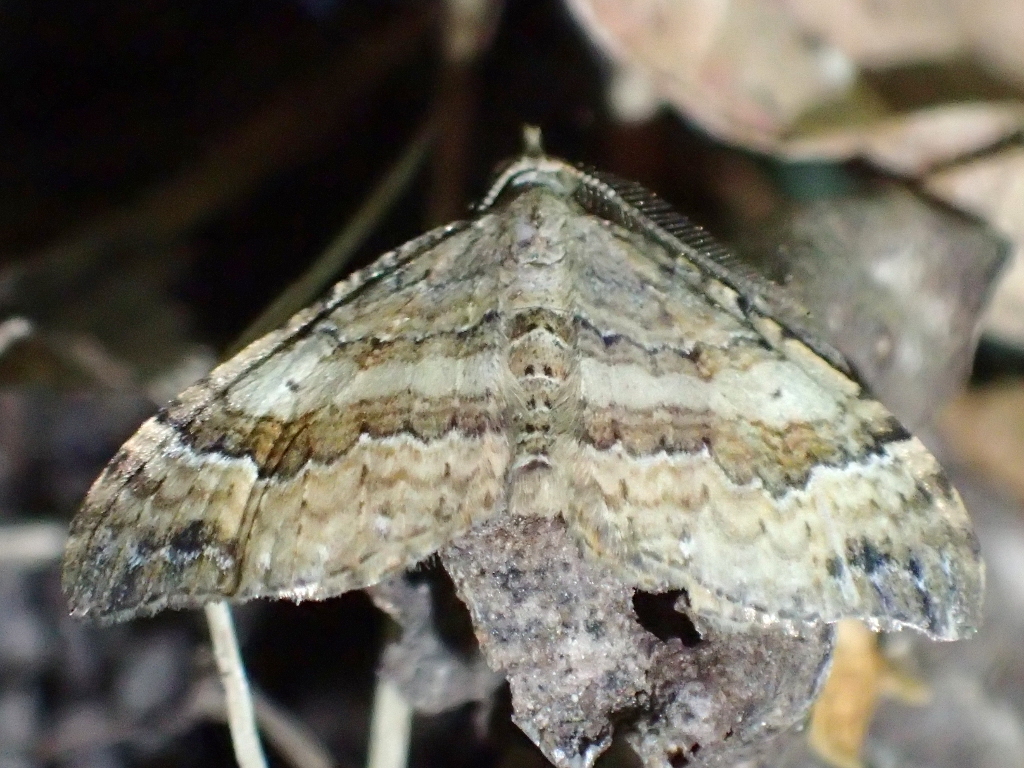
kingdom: Animalia
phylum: Arthropoda
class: Insecta
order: Lepidoptera
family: Geometridae
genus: Homodotis
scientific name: Homodotis megaspilata
